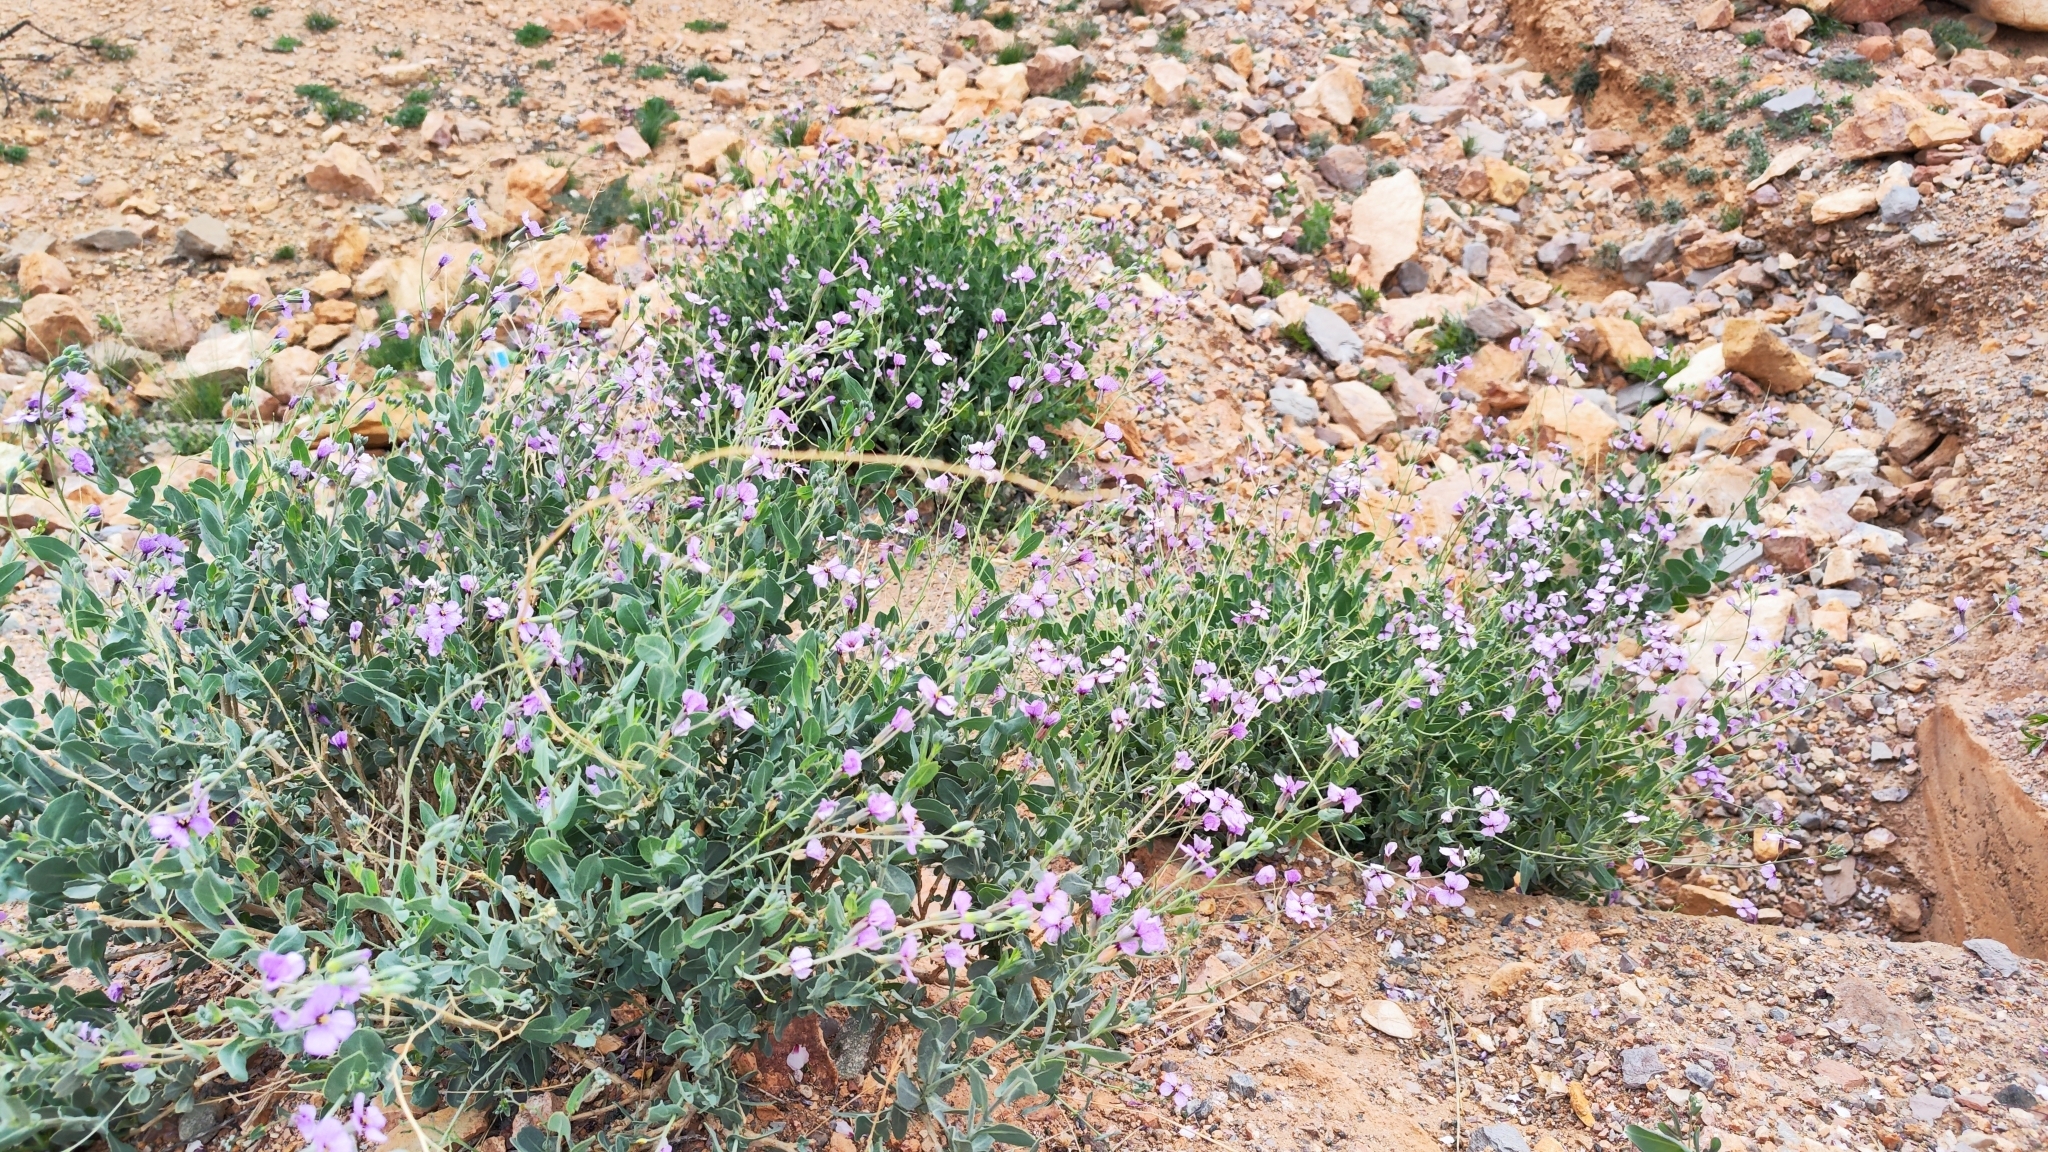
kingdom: Plantae
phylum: Tracheophyta
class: Magnoliopsida
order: Brassicales
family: Brassicaceae
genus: Moricandia
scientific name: Moricandia suffruticosa
